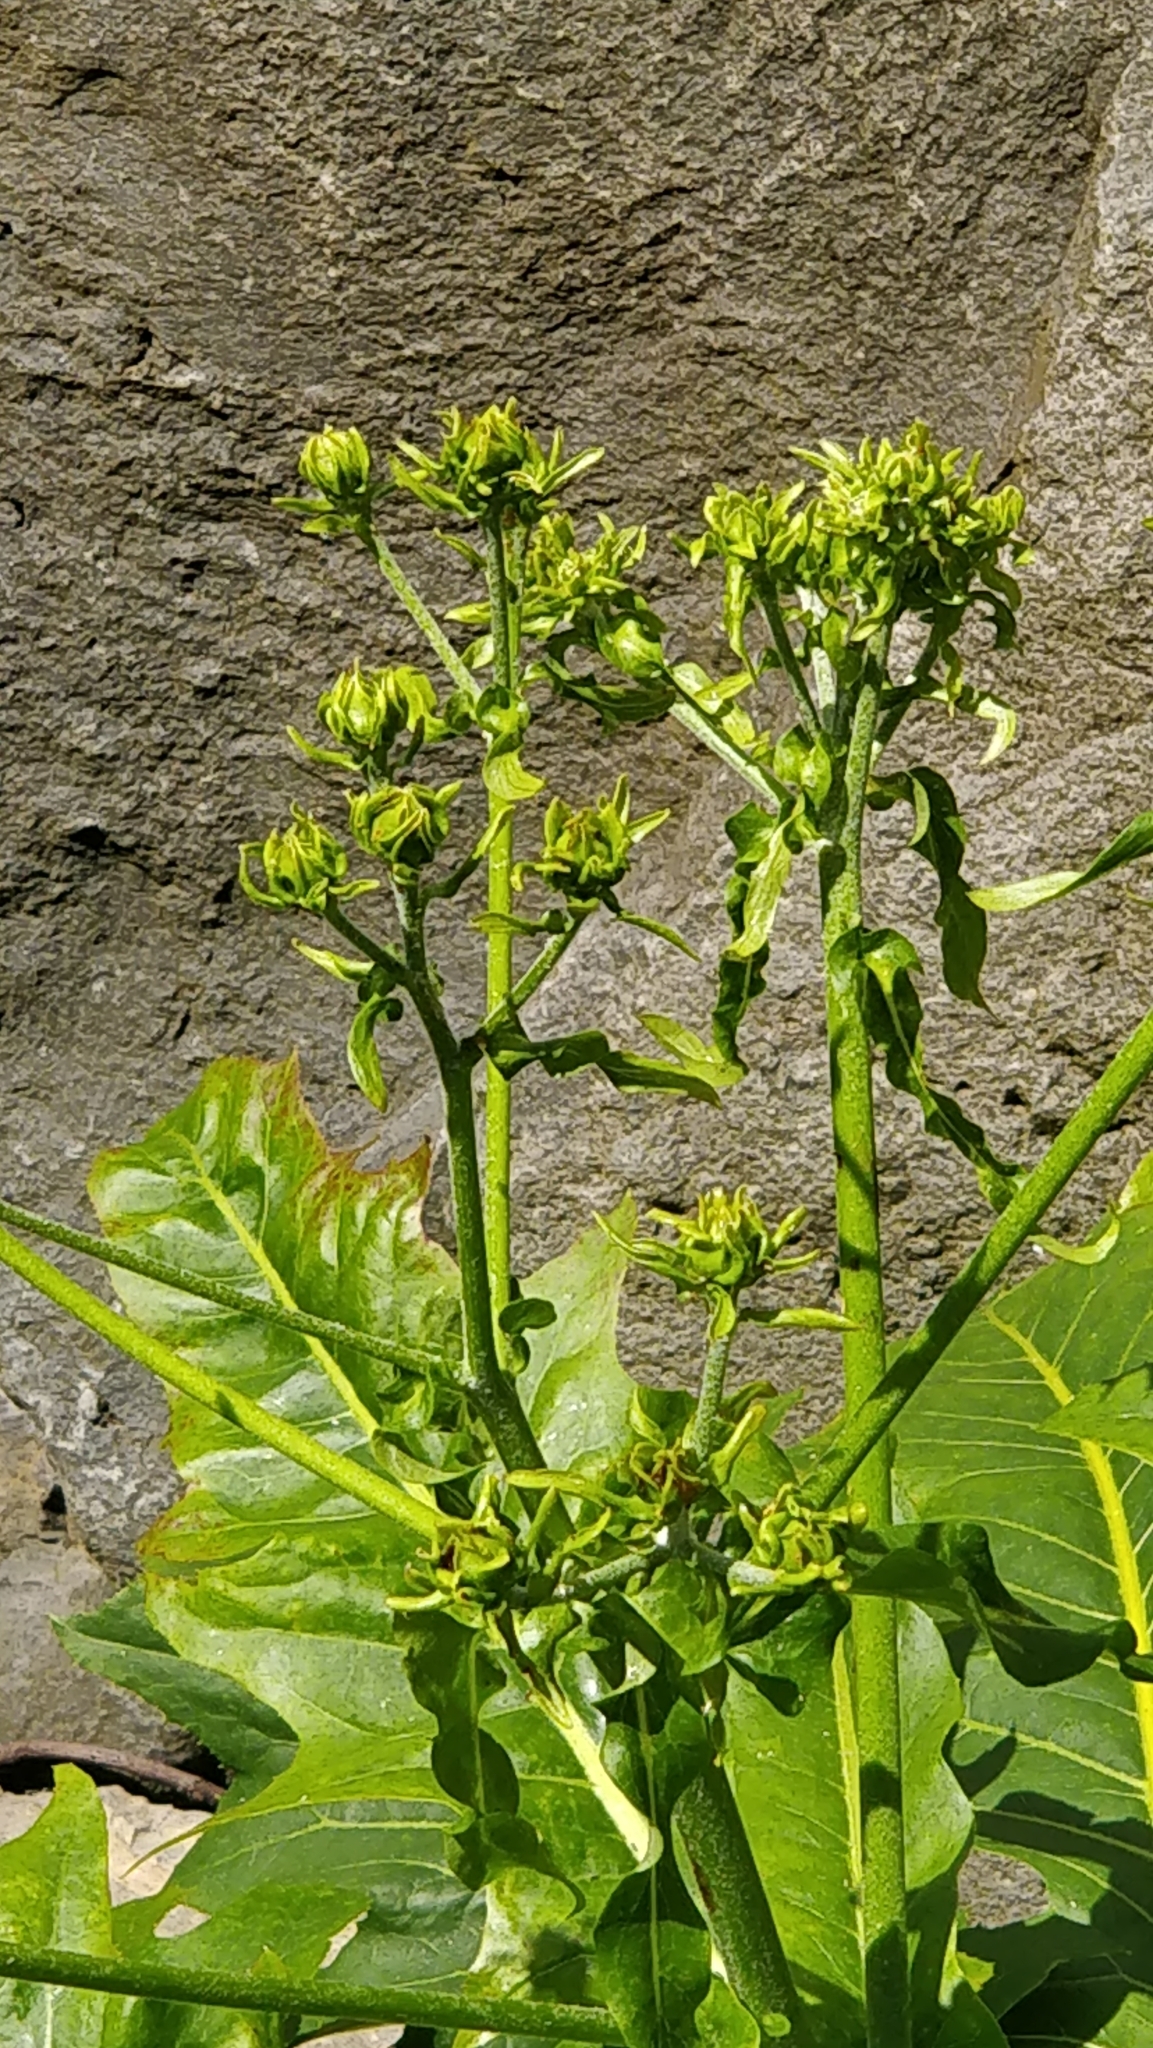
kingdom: Plantae
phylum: Tracheophyta
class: Magnoliopsida
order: Asterales
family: Asteraceae
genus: Sonchus
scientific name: Sonchus fruticosus
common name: Shrubby sow-thistle
